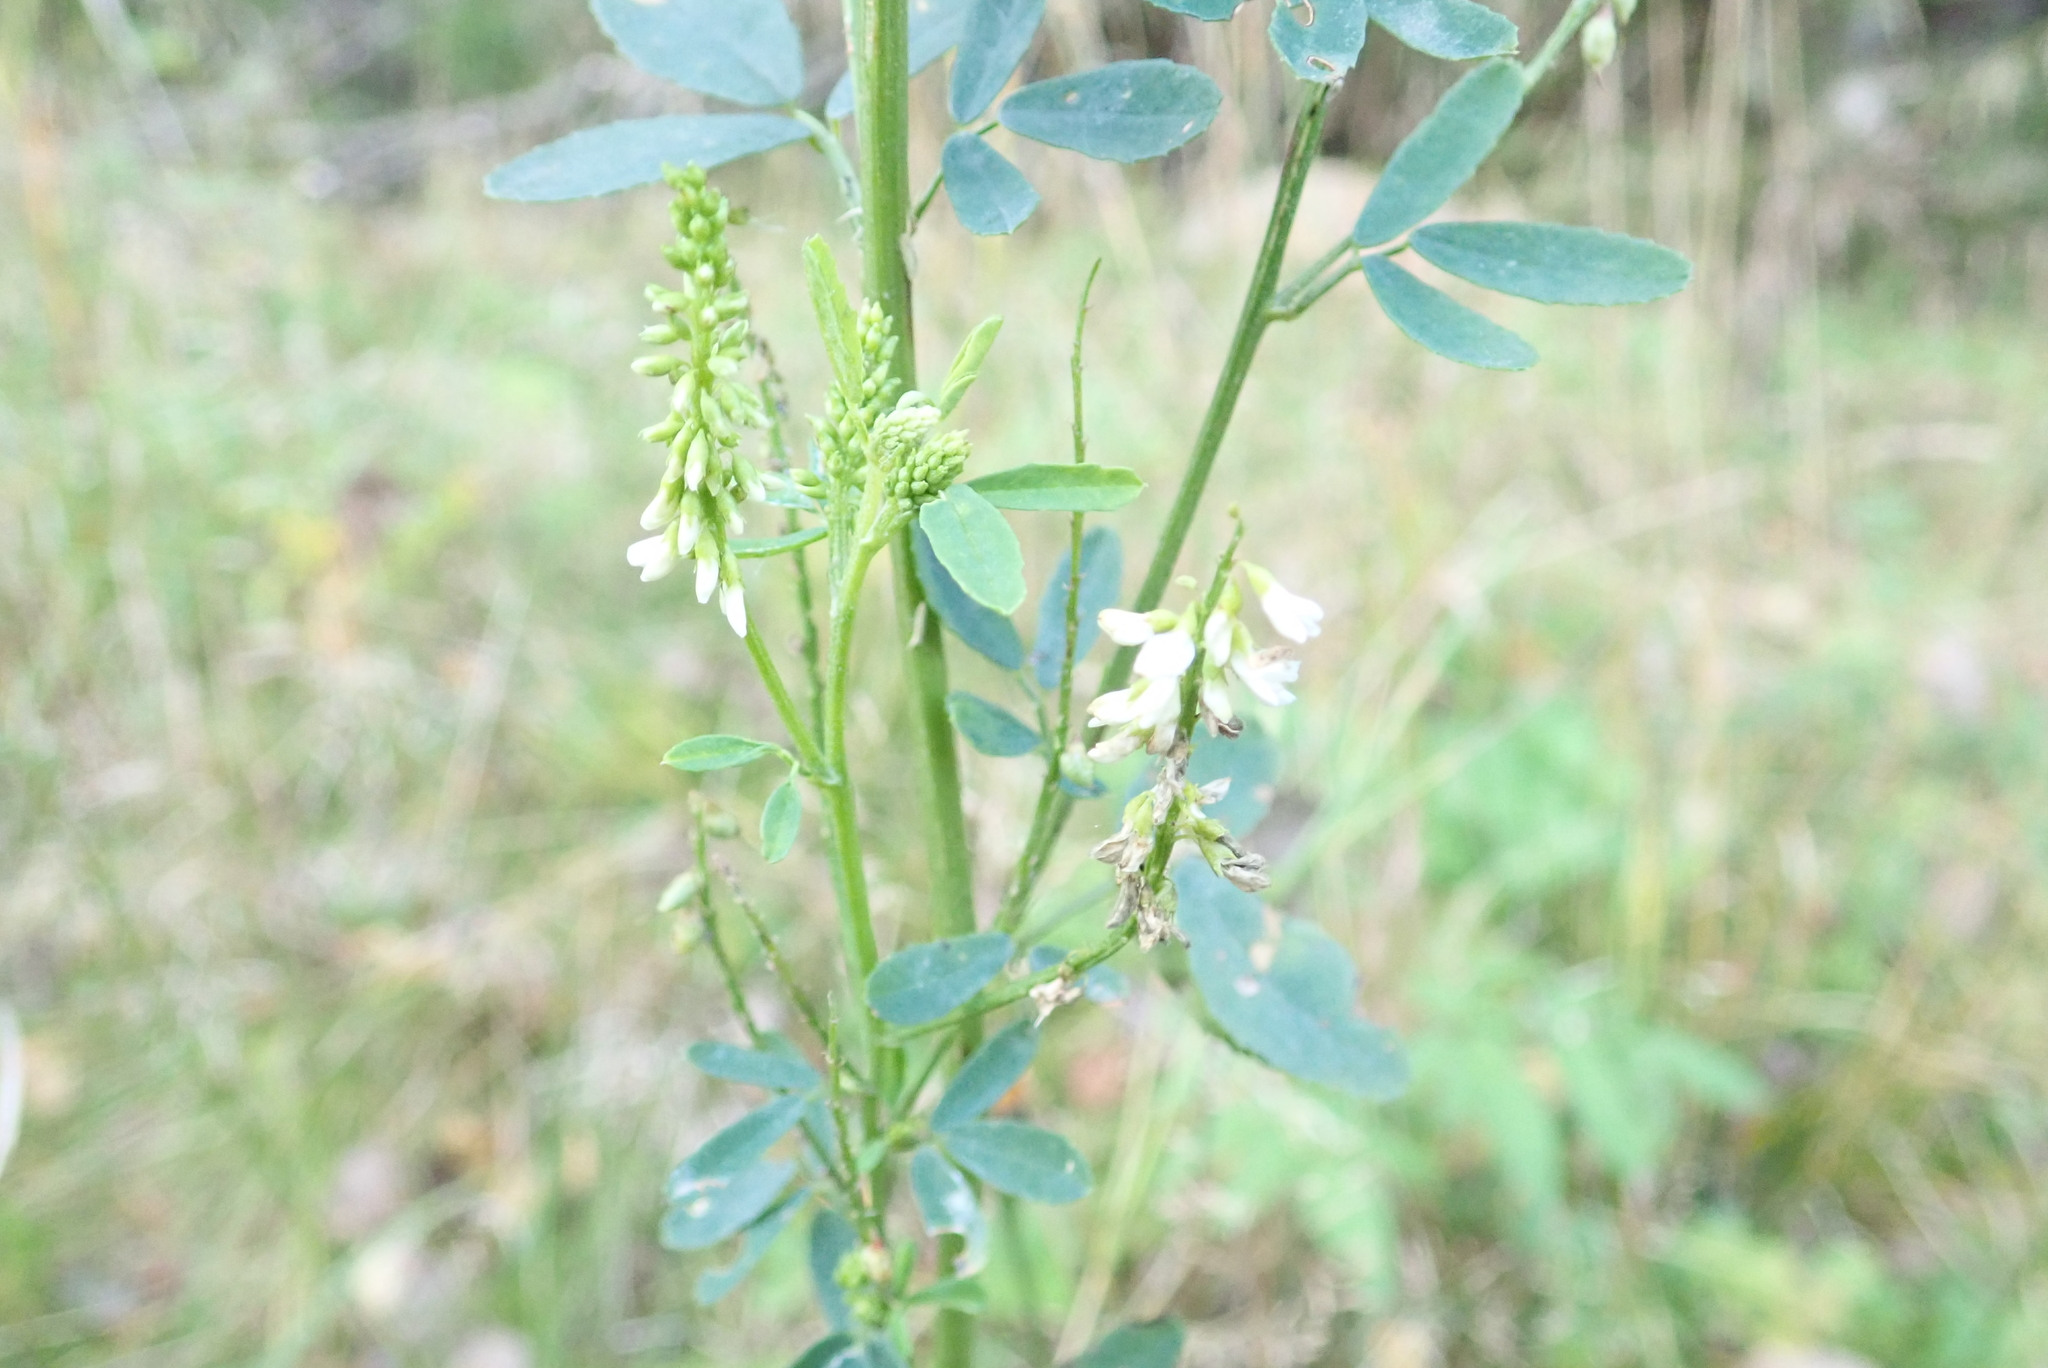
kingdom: Plantae
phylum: Tracheophyta
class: Magnoliopsida
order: Fabales
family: Fabaceae
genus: Melilotus
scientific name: Melilotus albus
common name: White melilot
